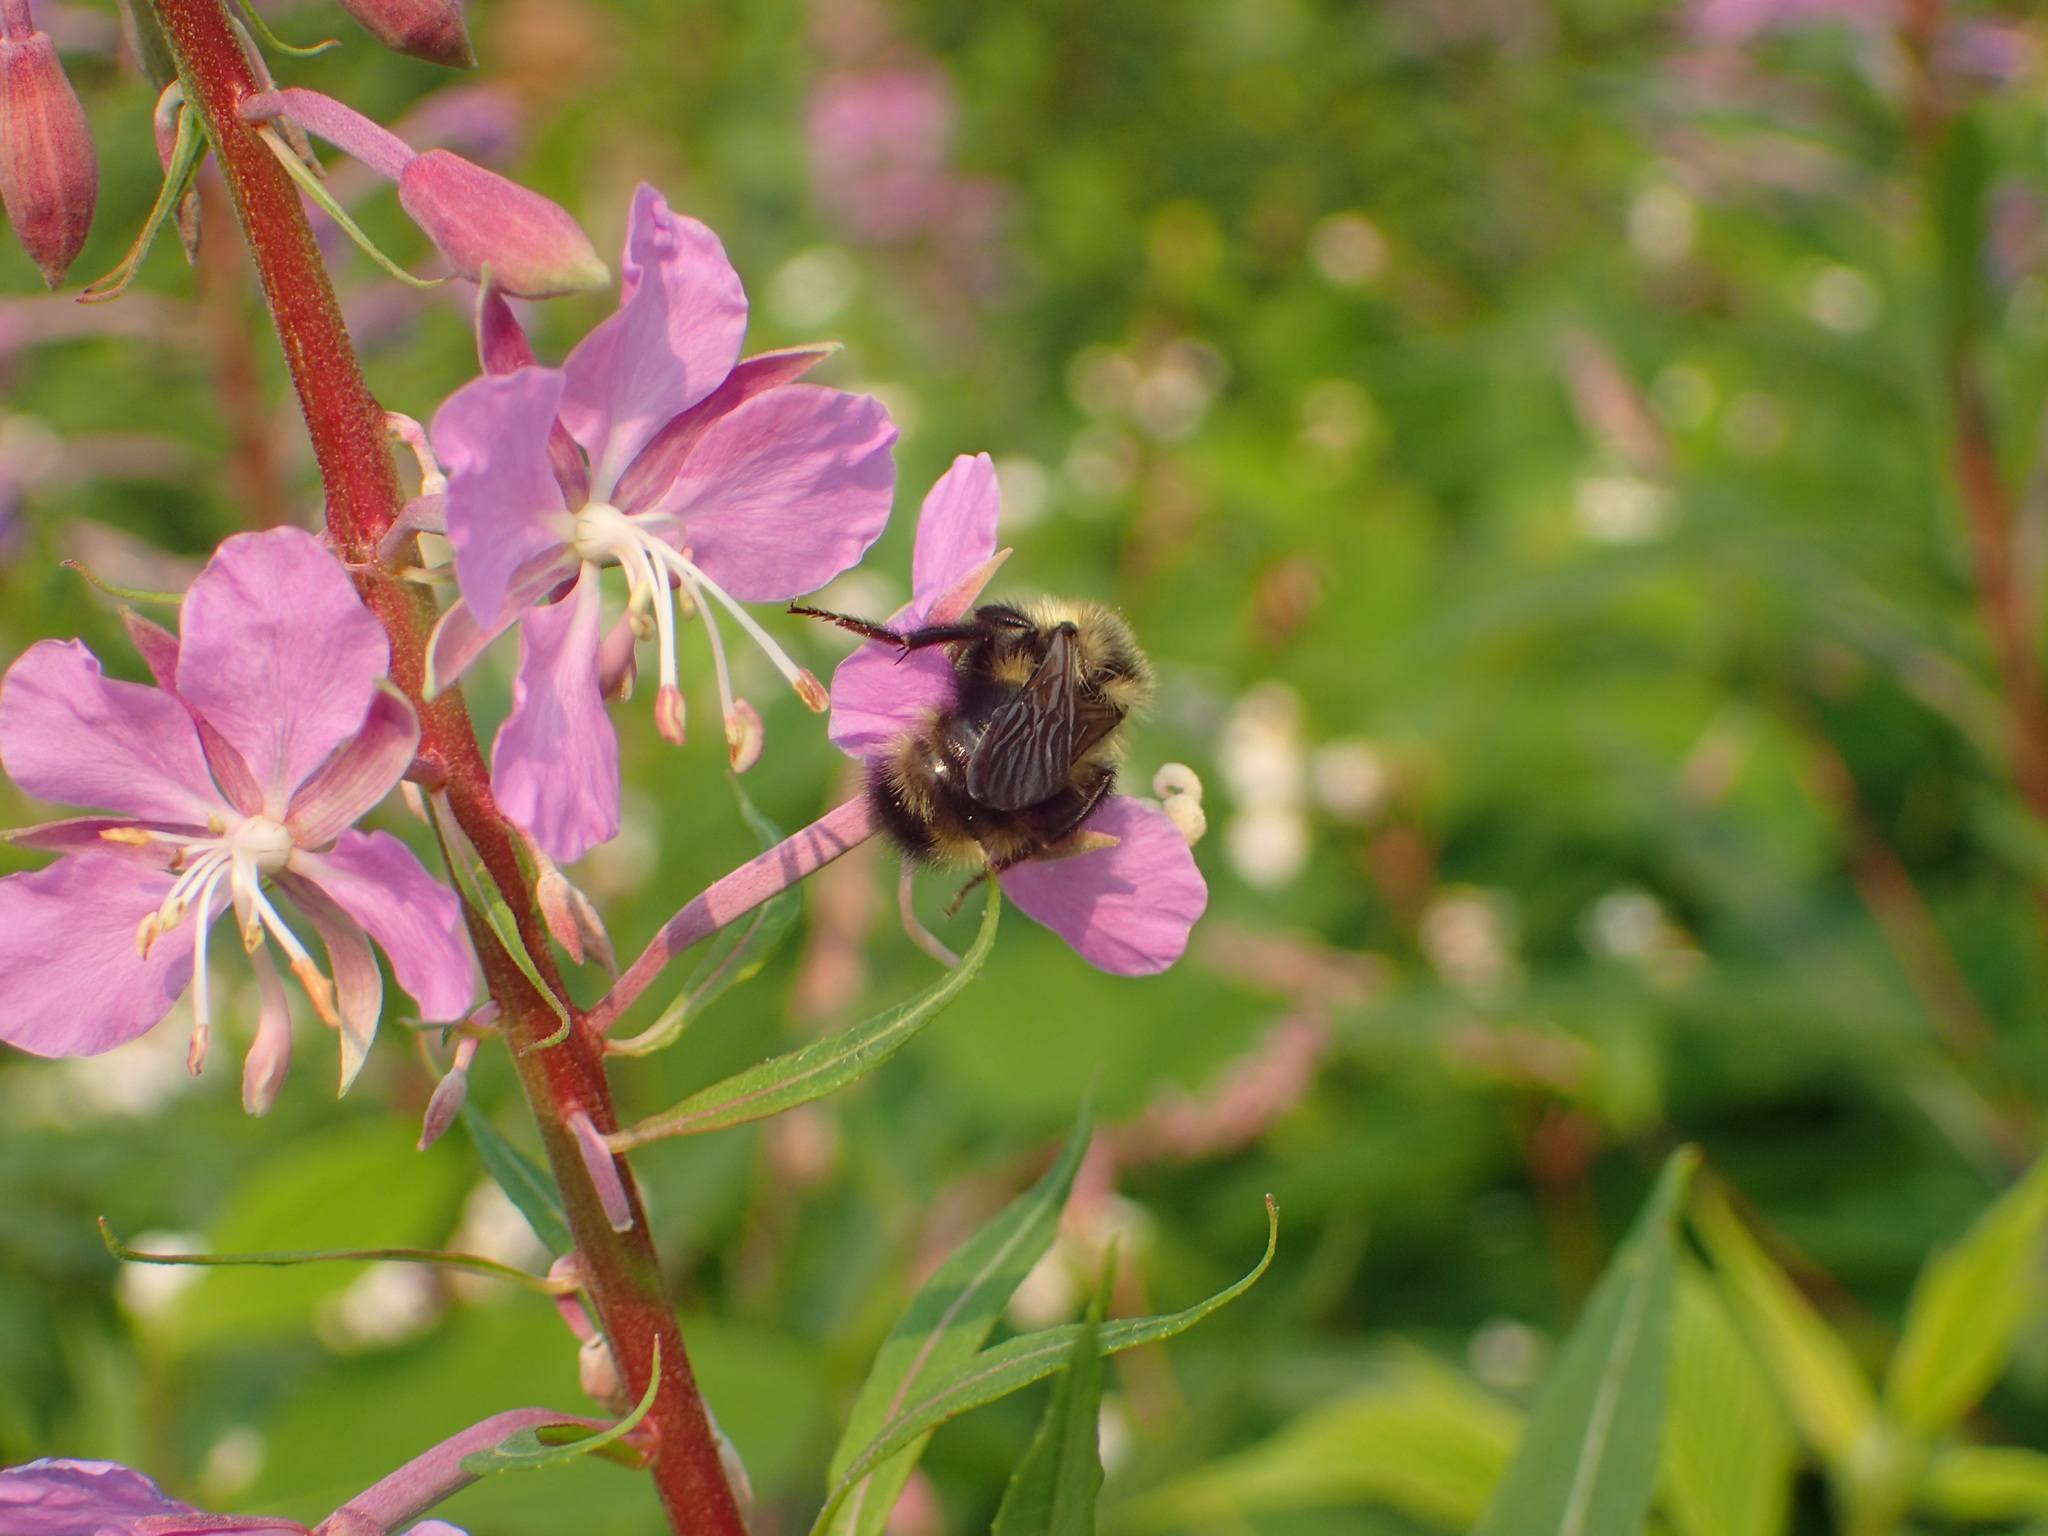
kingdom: Animalia
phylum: Arthropoda
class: Insecta
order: Hymenoptera
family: Apidae
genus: Bombus
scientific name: Bombus flavidus
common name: Fernald cuckoo bumble bee
